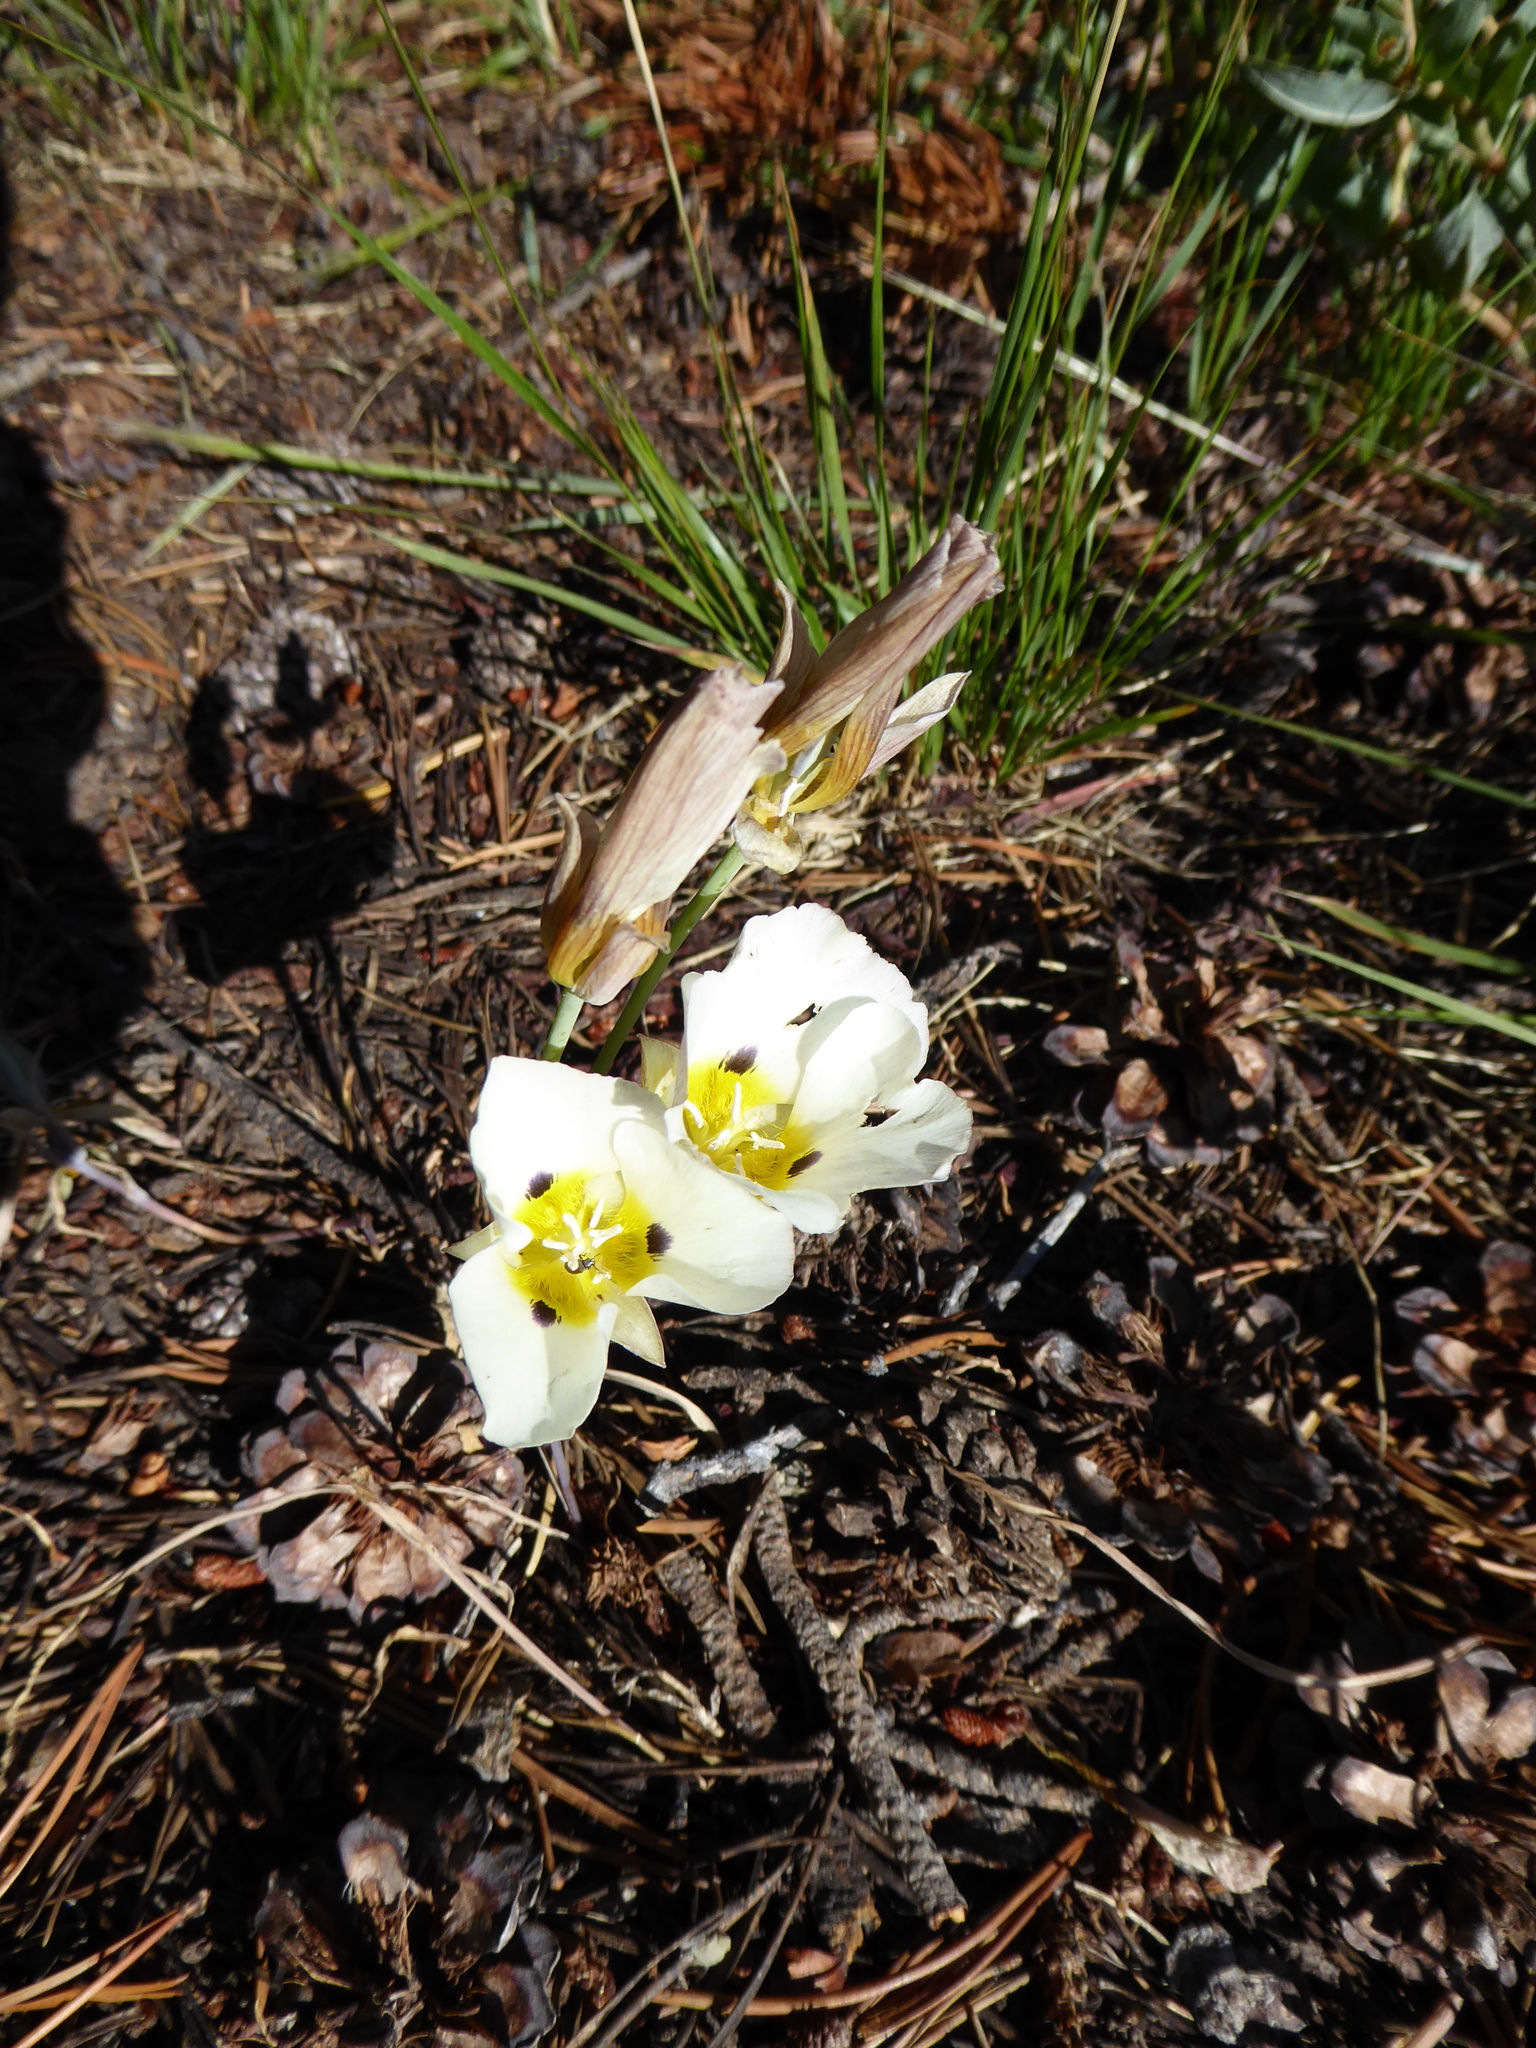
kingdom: Plantae
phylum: Tracheophyta
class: Liliopsida
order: Liliales
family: Liliaceae
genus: Calochortus
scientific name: Calochortus leichtlinii
